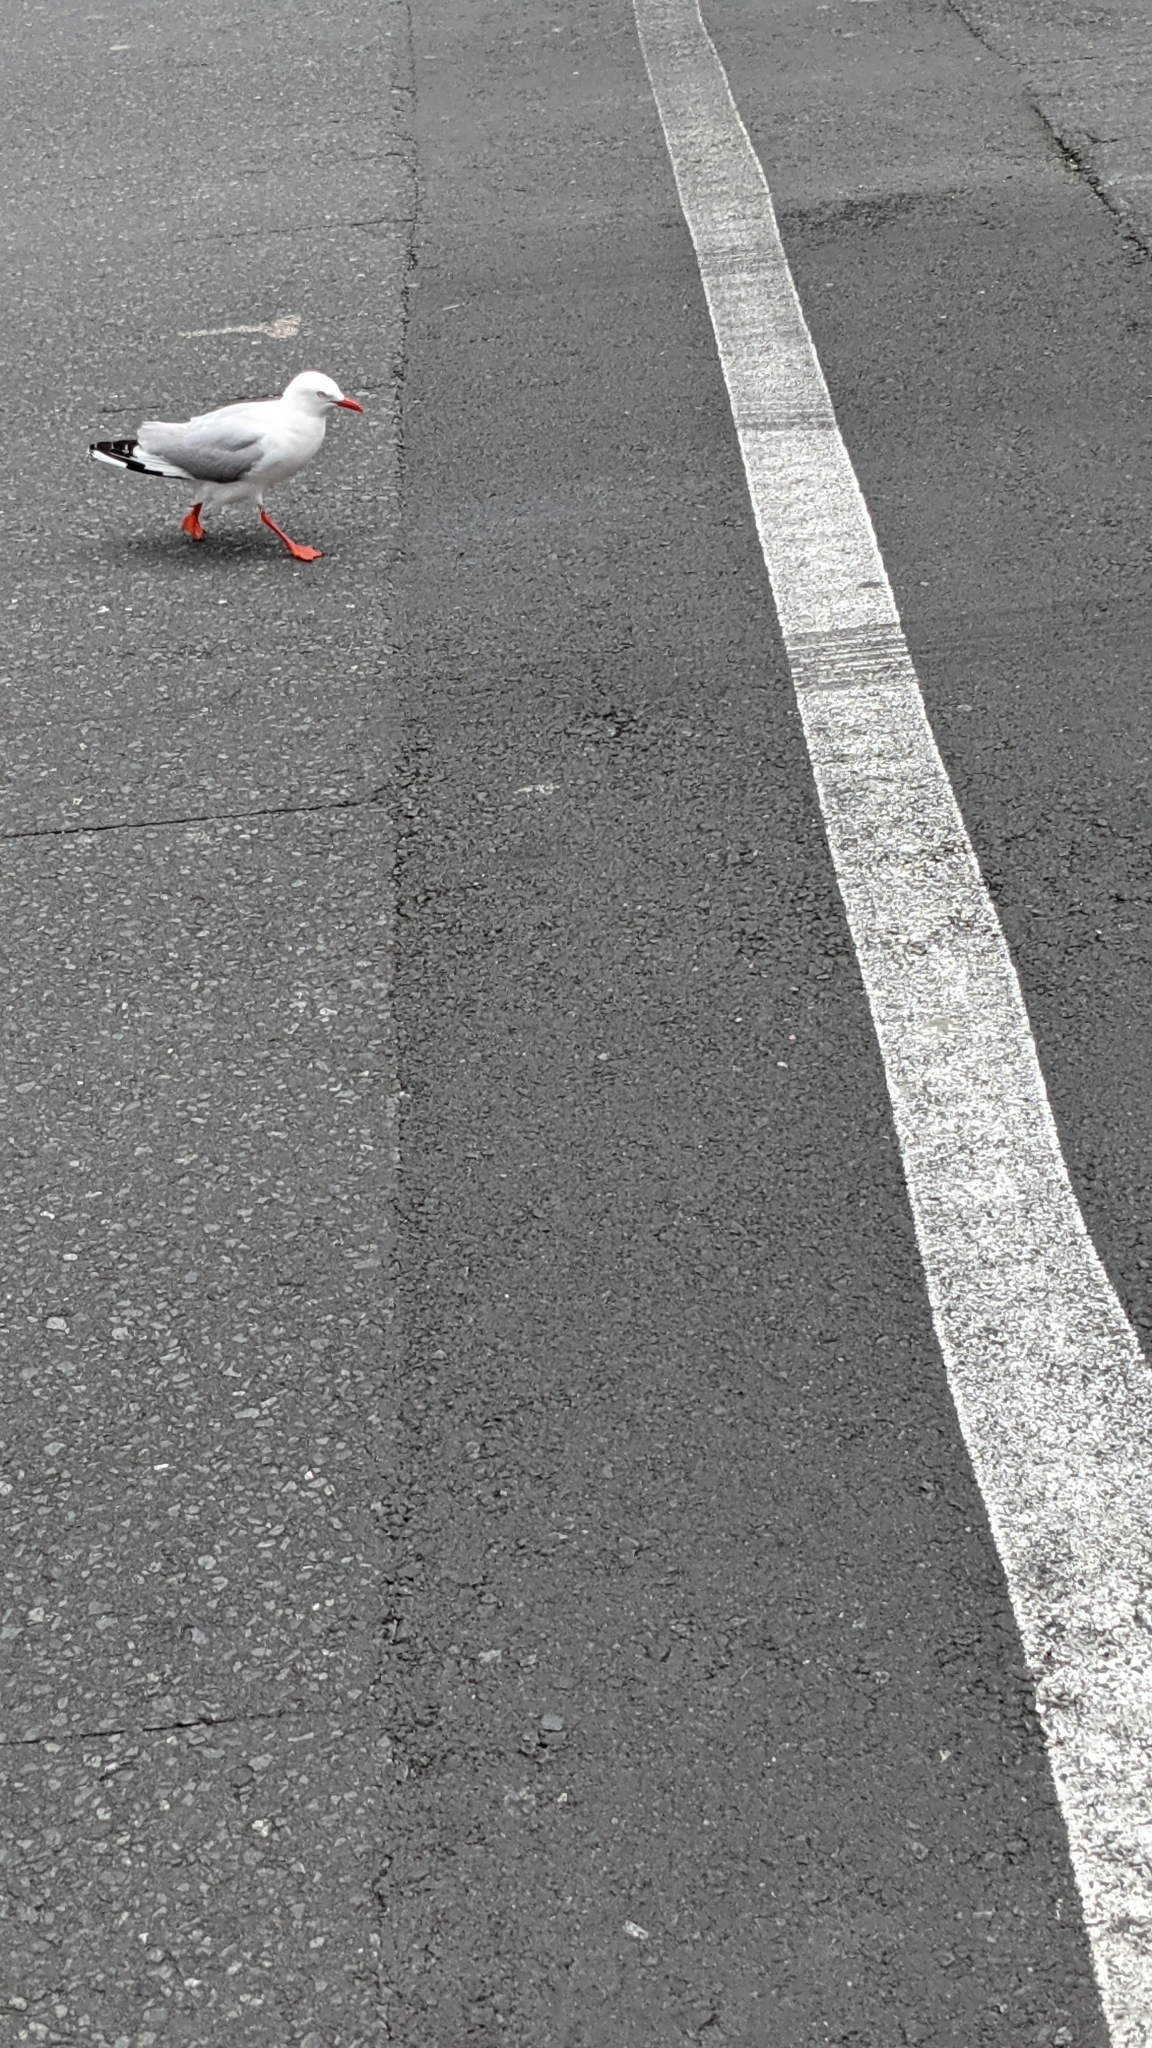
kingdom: Animalia
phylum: Chordata
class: Aves
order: Charadriiformes
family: Laridae
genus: Chroicocephalus
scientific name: Chroicocephalus novaehollandiae
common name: Silver gull
